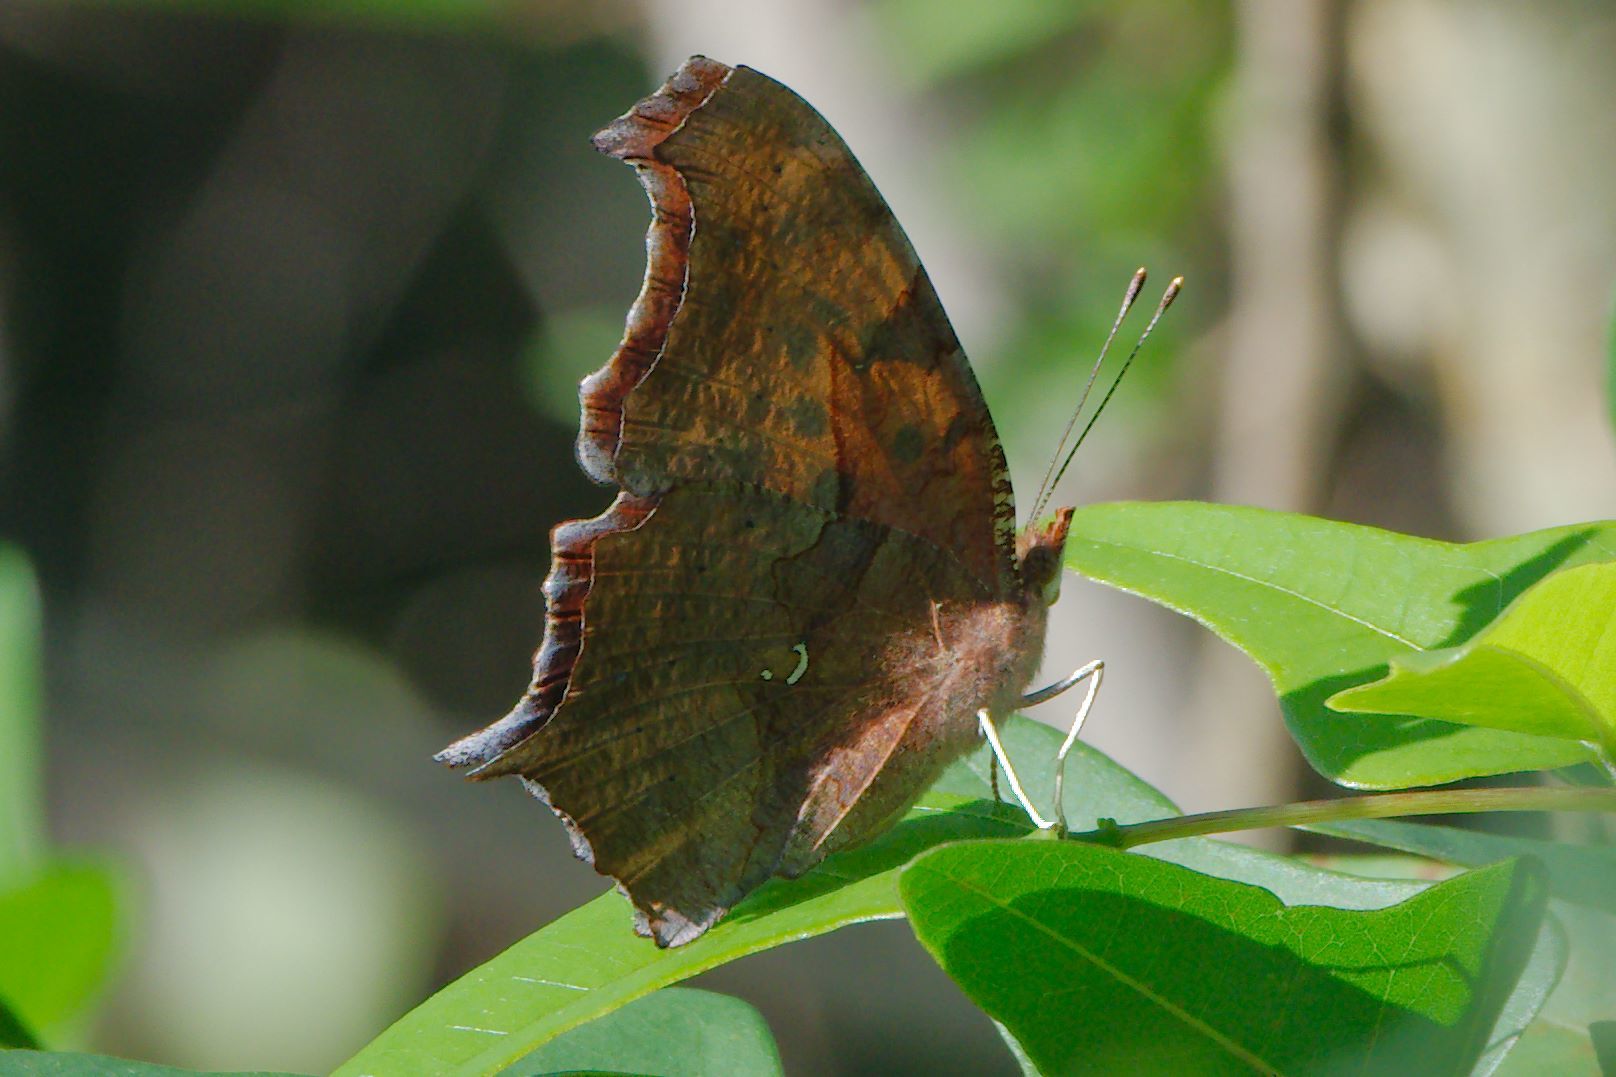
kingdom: Animalia
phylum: Arthropoda
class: Insecta
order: Lepidoptera
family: Nymphalidae
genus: Polygonia
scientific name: Polygonia interrogationis
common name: Question mark
